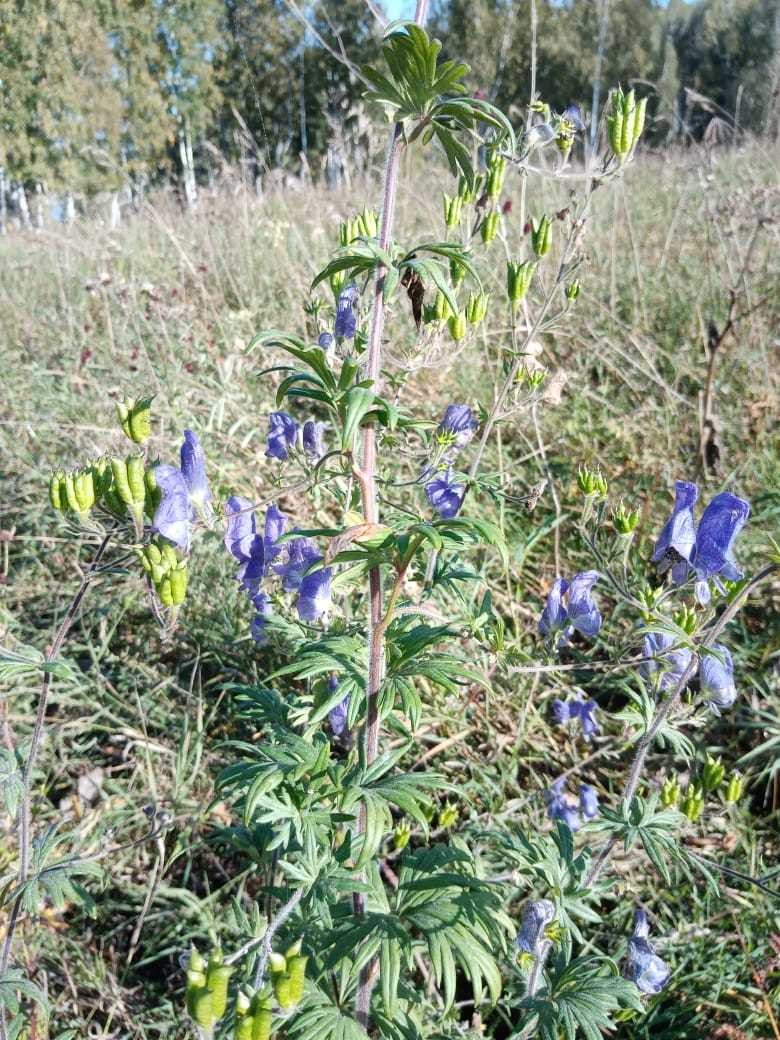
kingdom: Plantae
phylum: Tracheophyta
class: Magnoliopsida
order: Ranunculales
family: Ranunculaceae
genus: Aconitum
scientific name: Aconitum volubile
